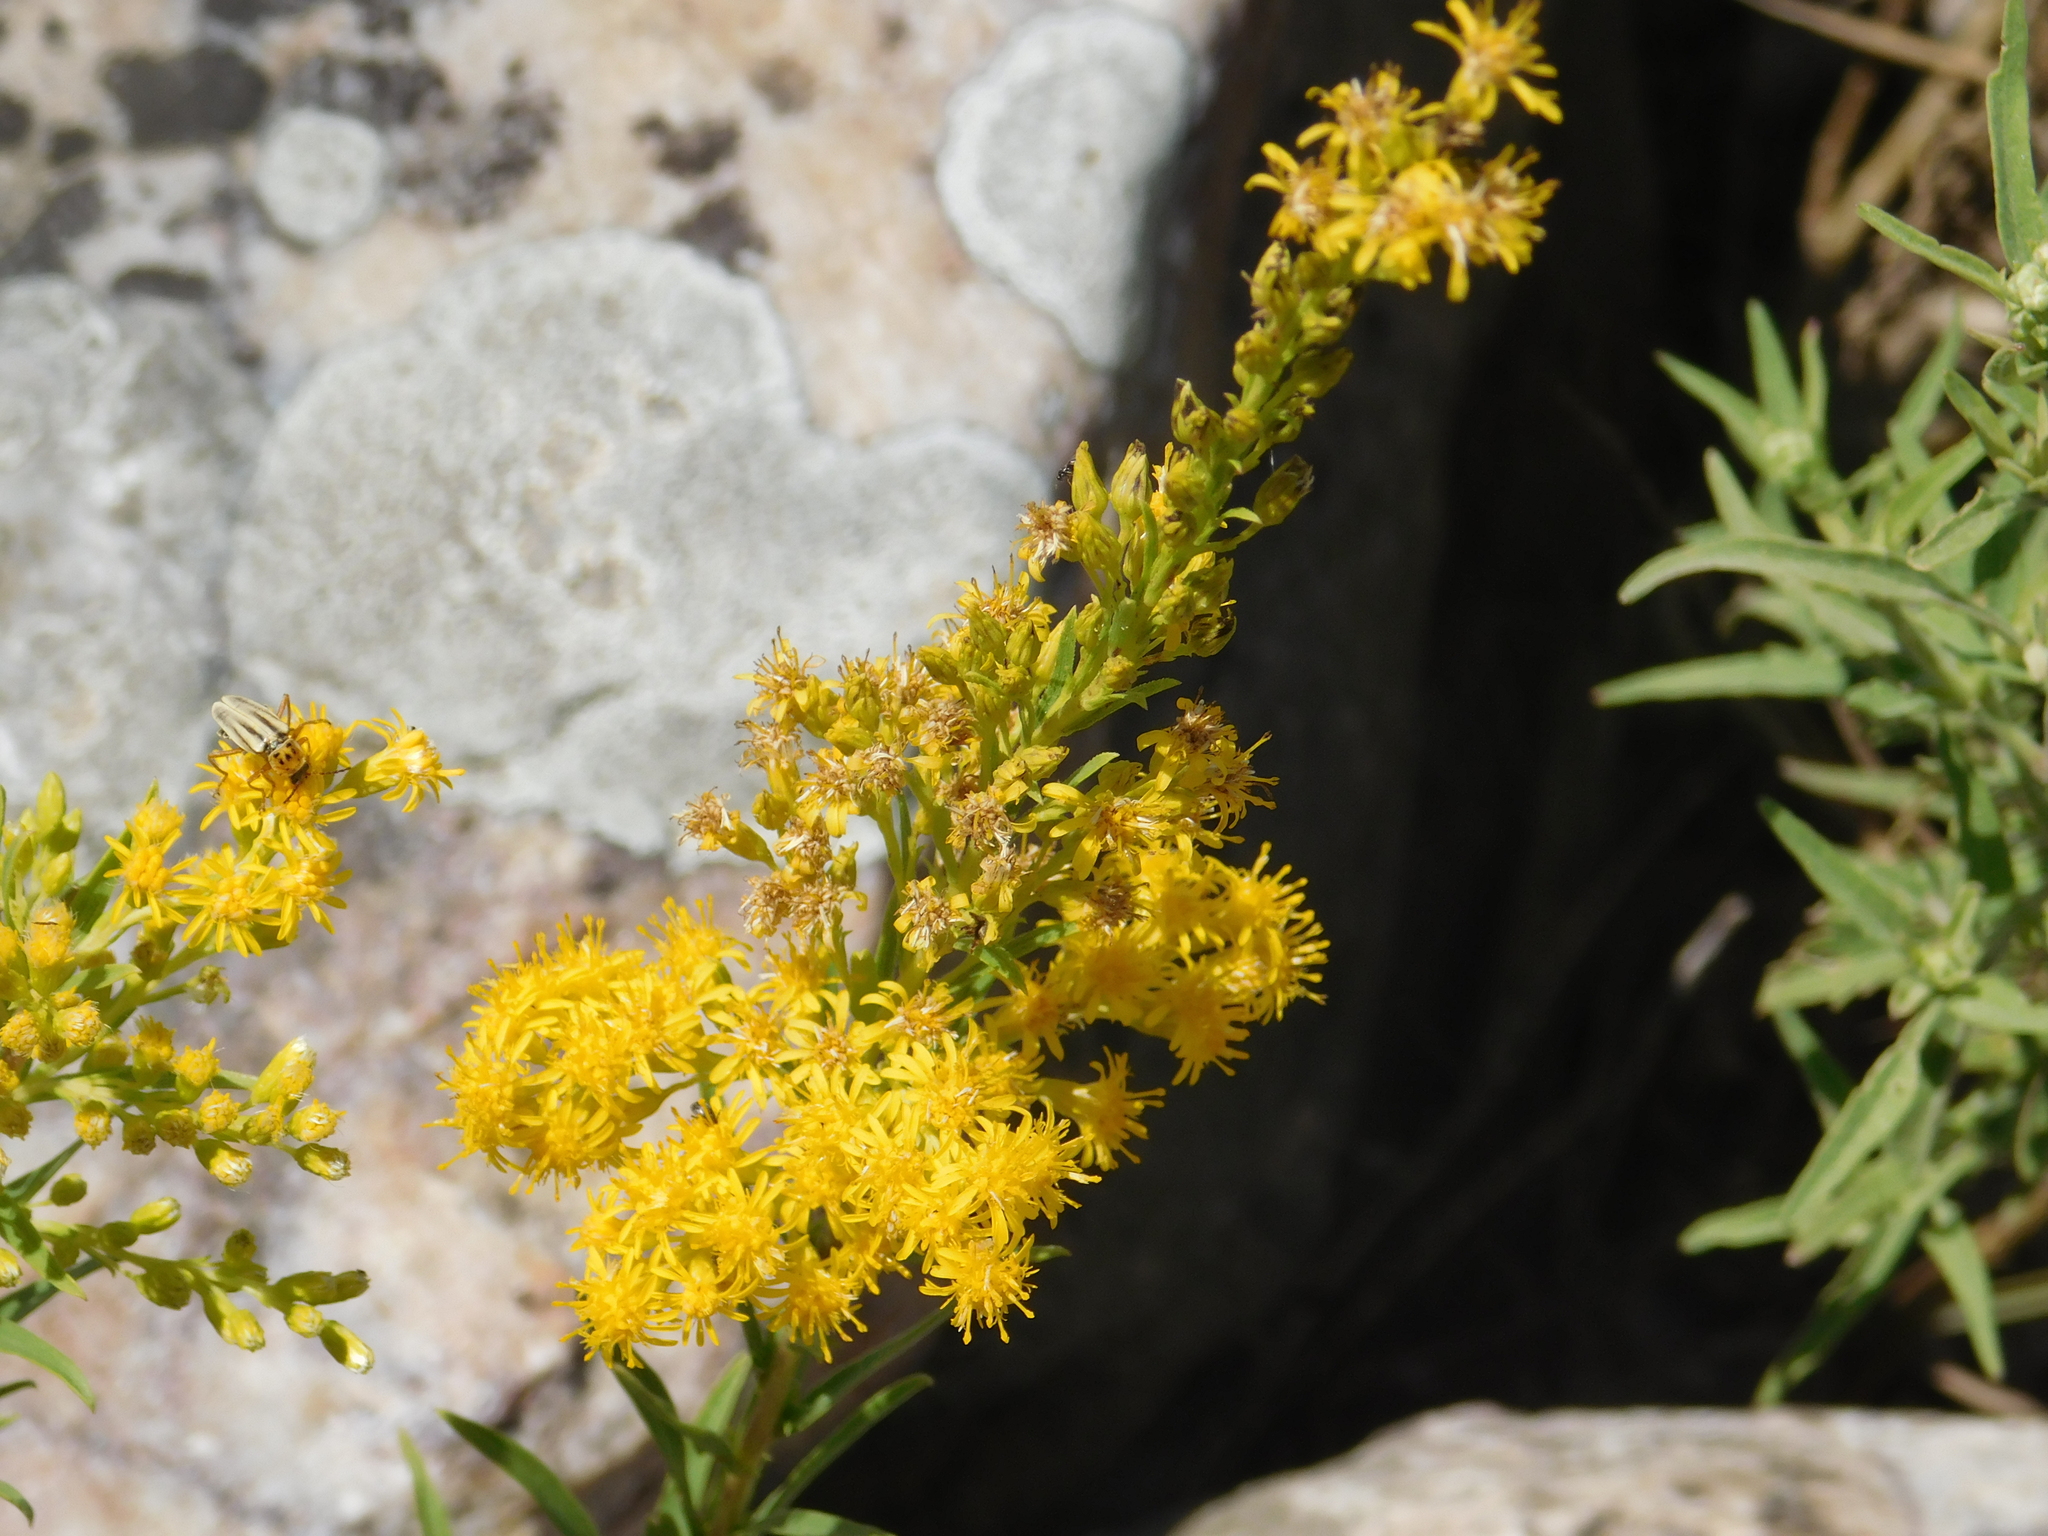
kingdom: Plantae
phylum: Tracheophyta
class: Magnoliopsida
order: Asterales
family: Asteraceae
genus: Solidago
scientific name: Solidago chilensis
